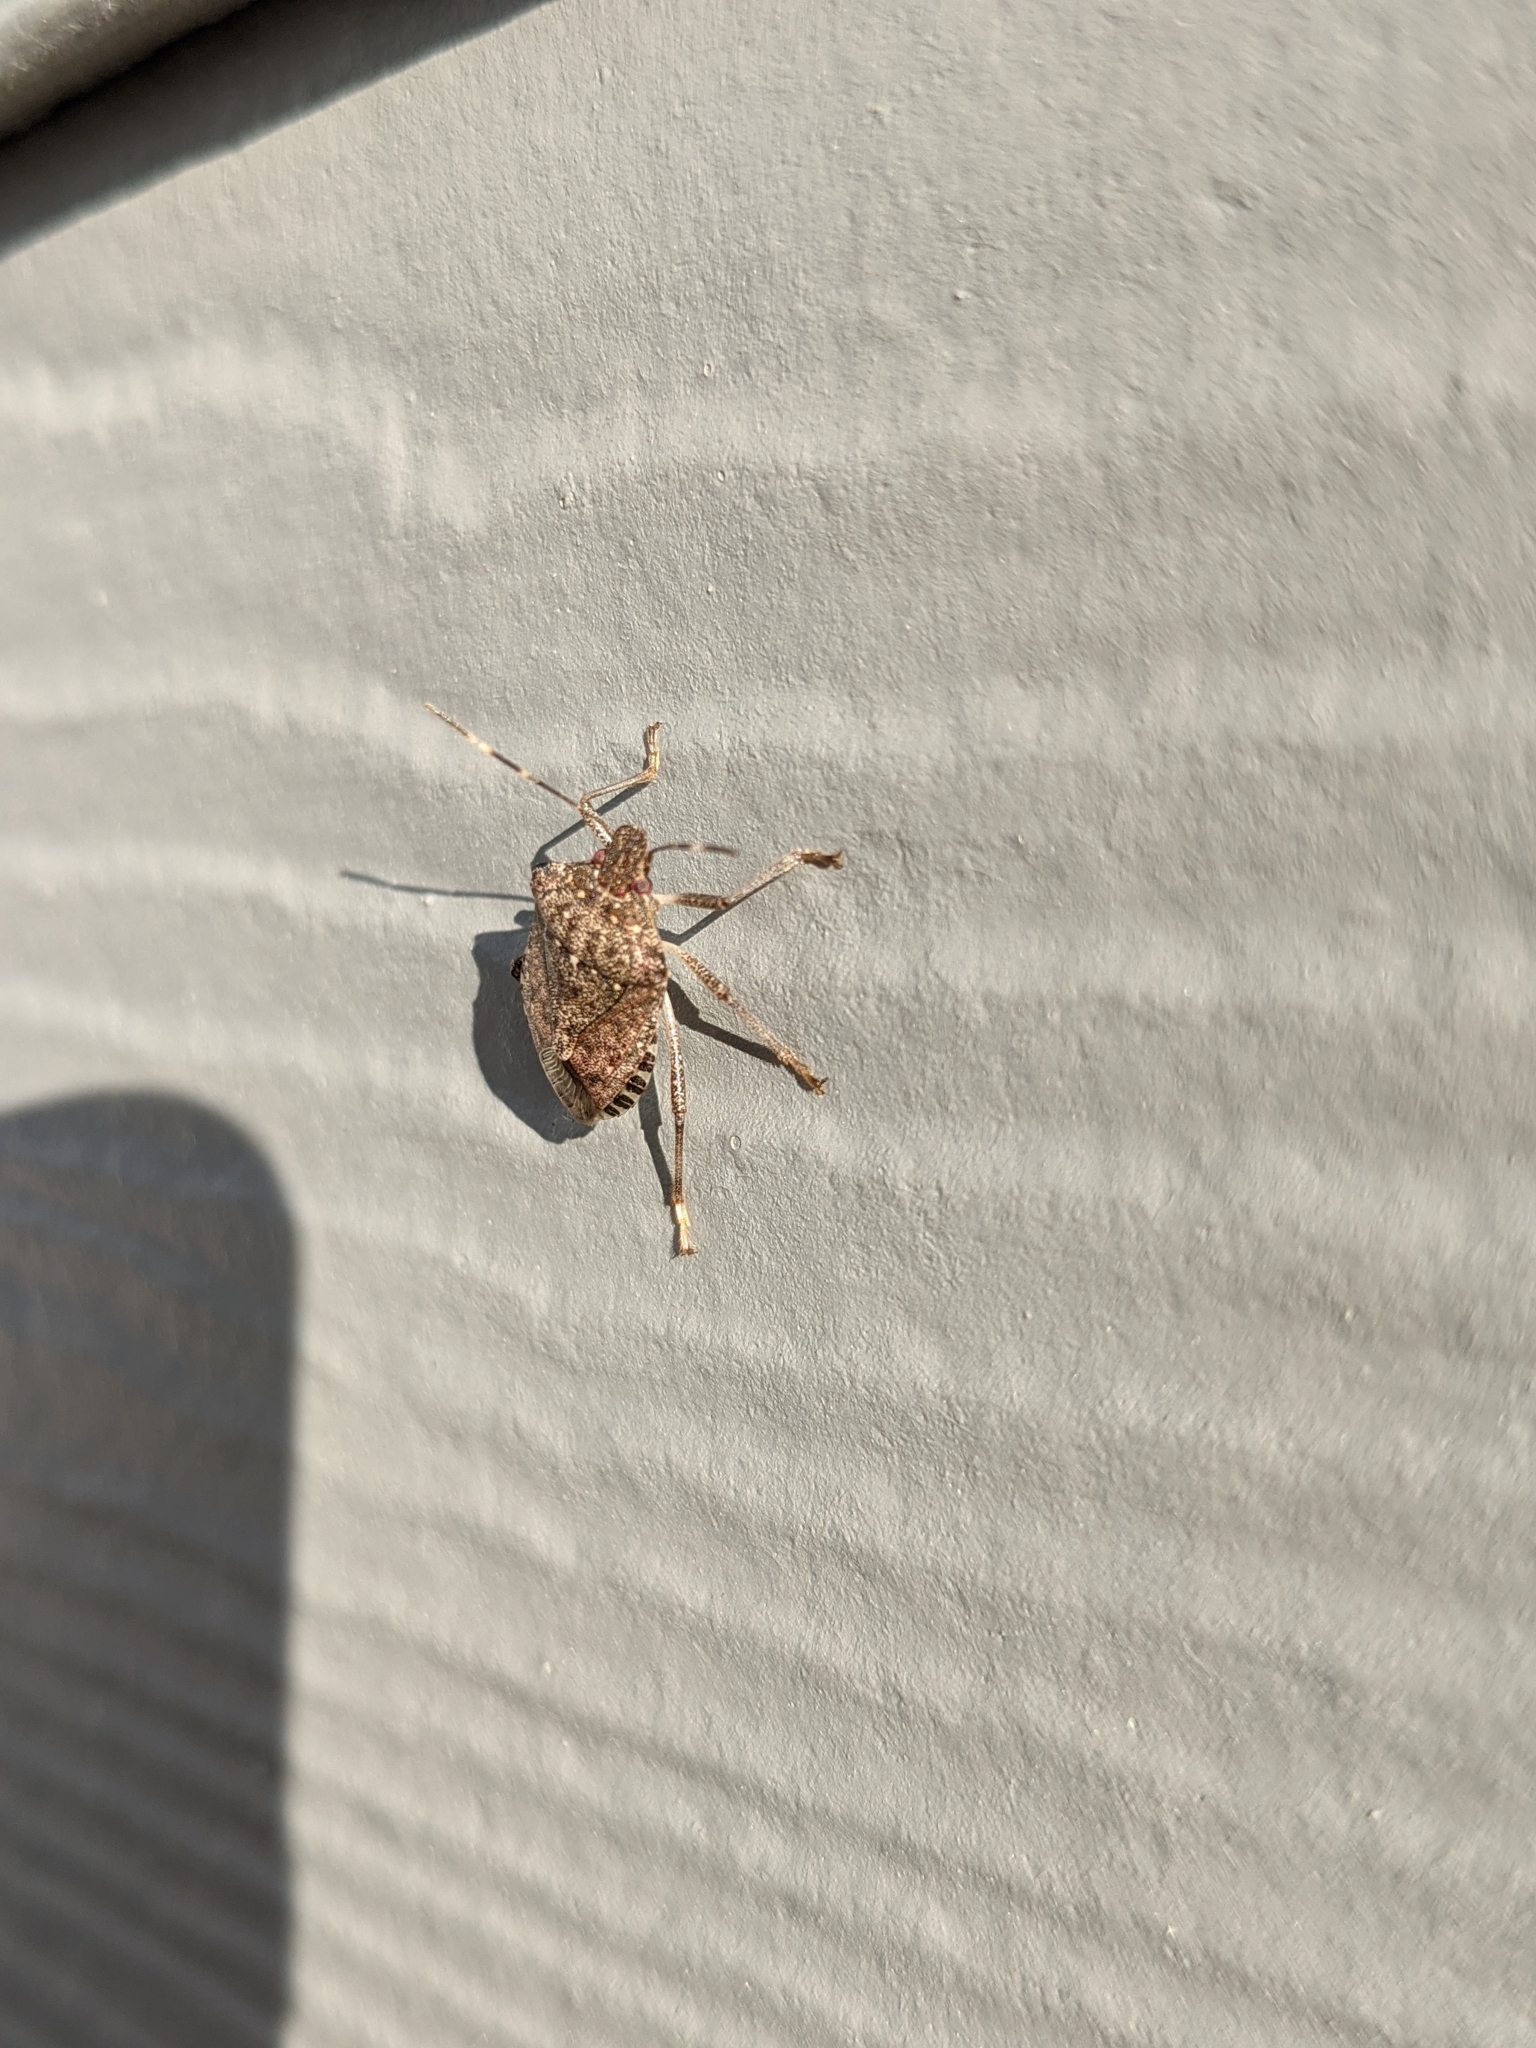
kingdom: Animalia
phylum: Arthropoda
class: Insecta
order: Hemiptera
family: Pentatomidae
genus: Halyomorpha
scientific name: Halyomorpha halys
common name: Brown marmorated stink bug
